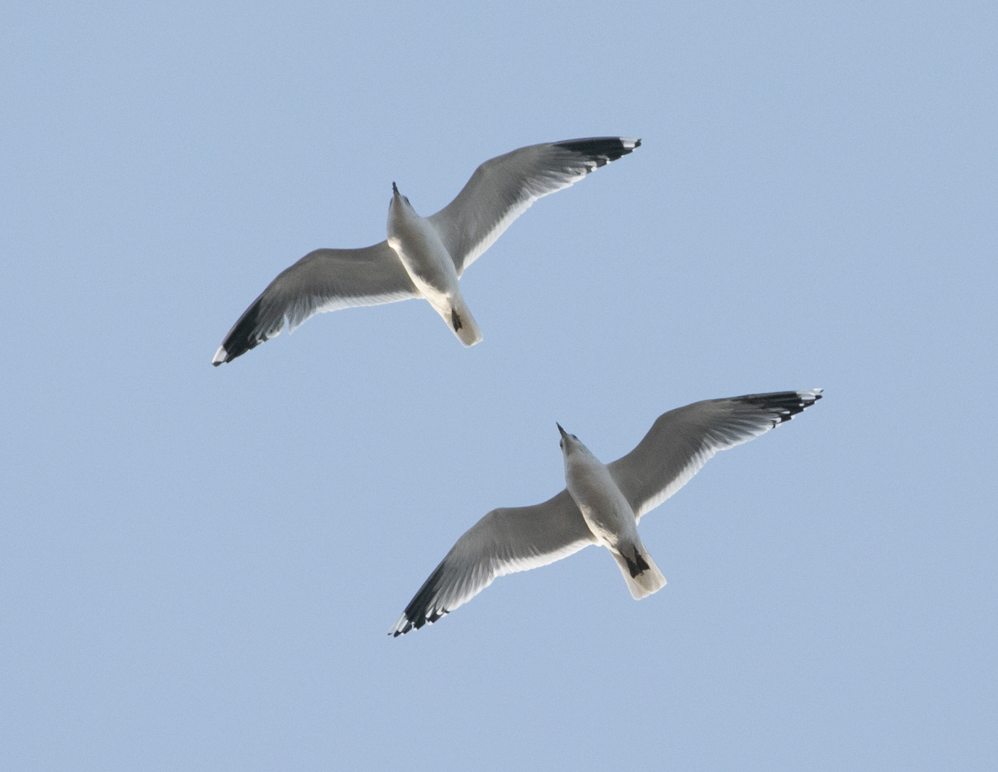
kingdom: Animalia
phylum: Chordata
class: Aves
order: Charadriiformes
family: Laridae
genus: Larus
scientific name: Larus canus
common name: Mew gull
